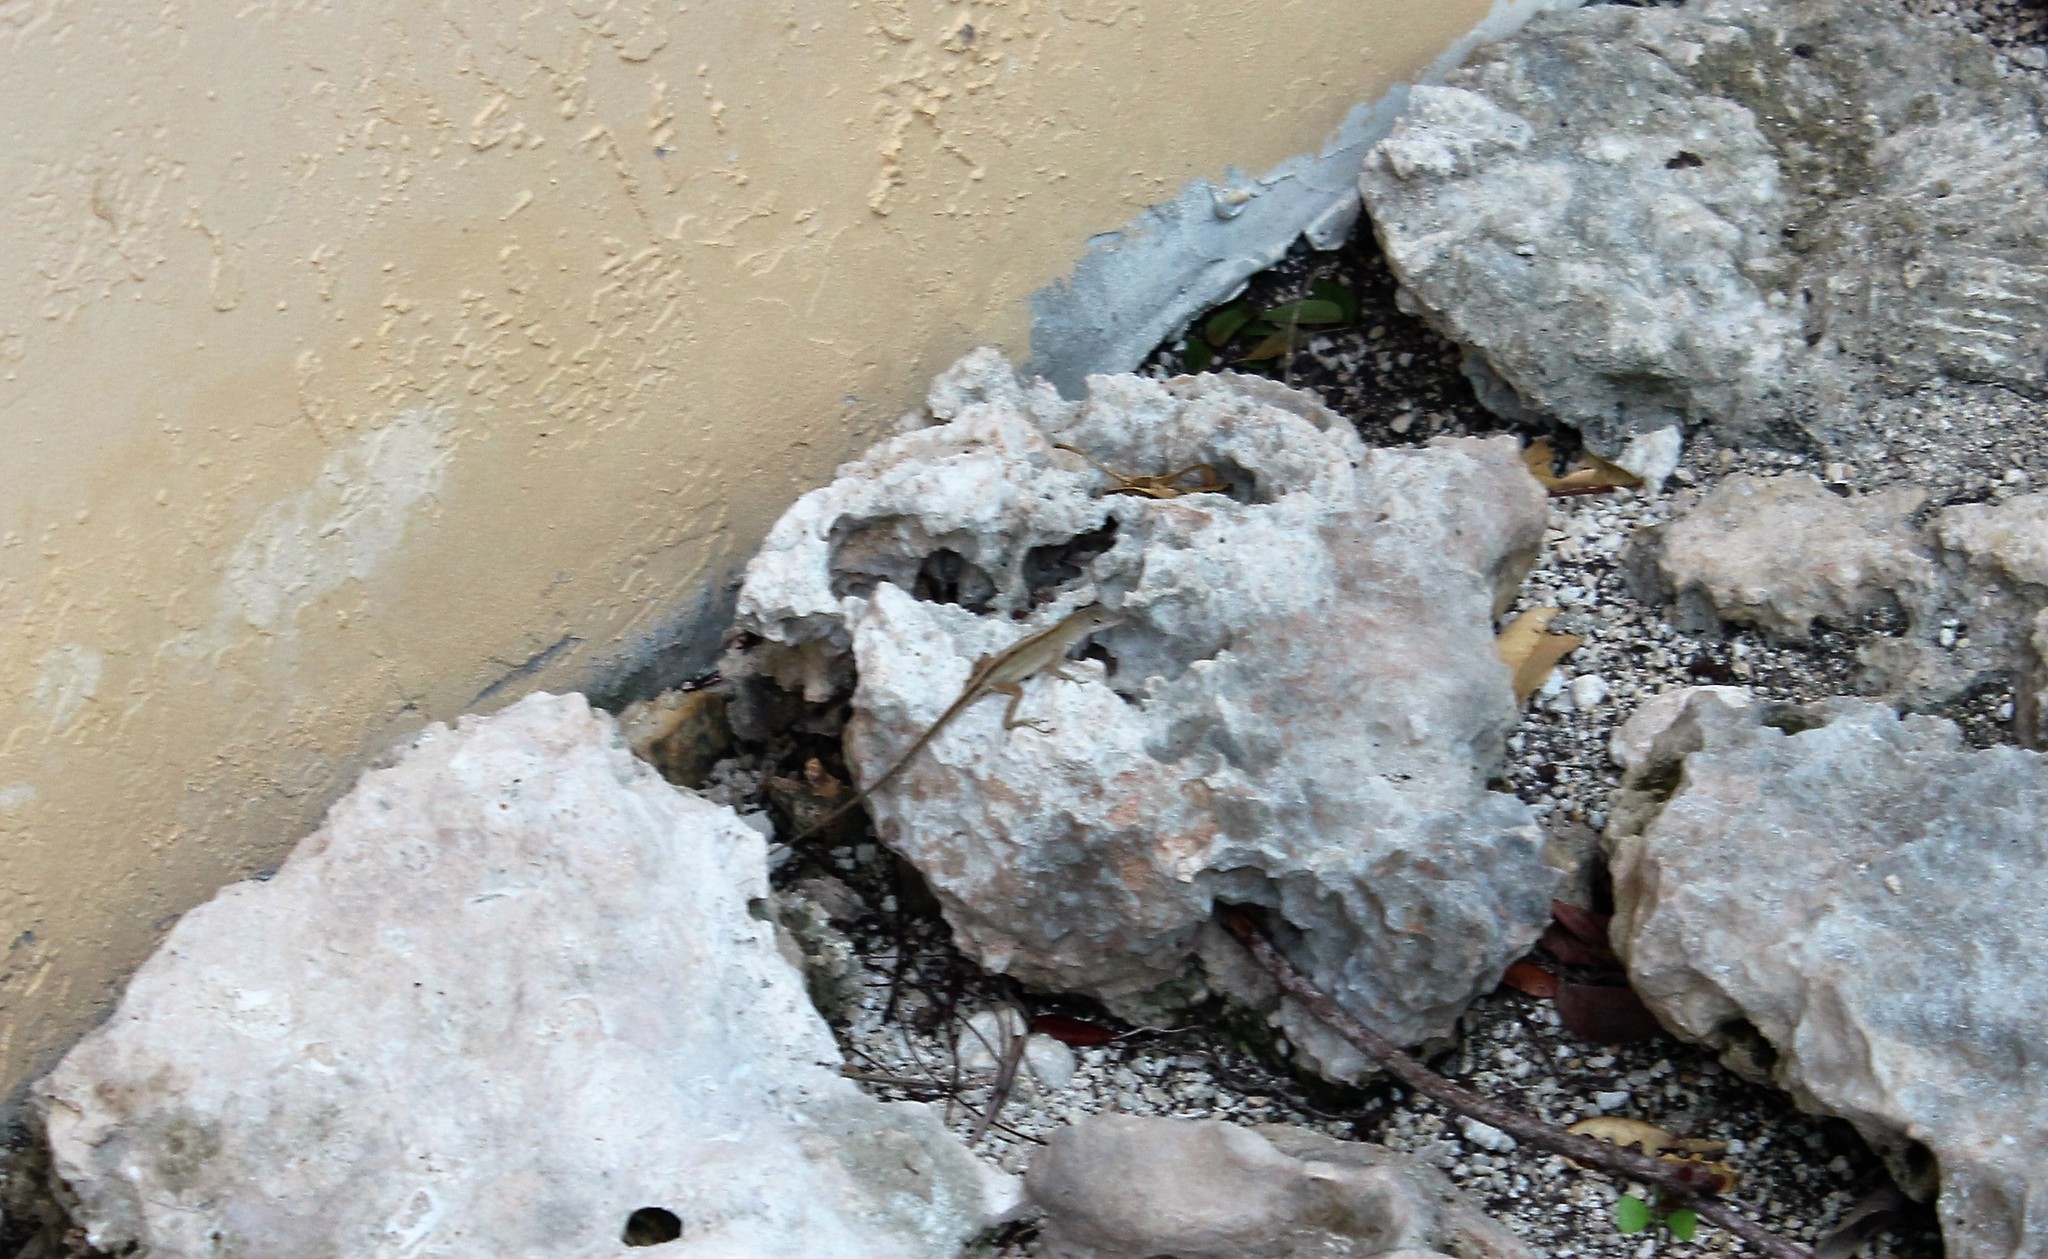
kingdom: Animalia
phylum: Chordata
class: Squamata
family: Dactyloidae
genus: Anolis
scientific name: Anolis sagrei
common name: Brown anole
